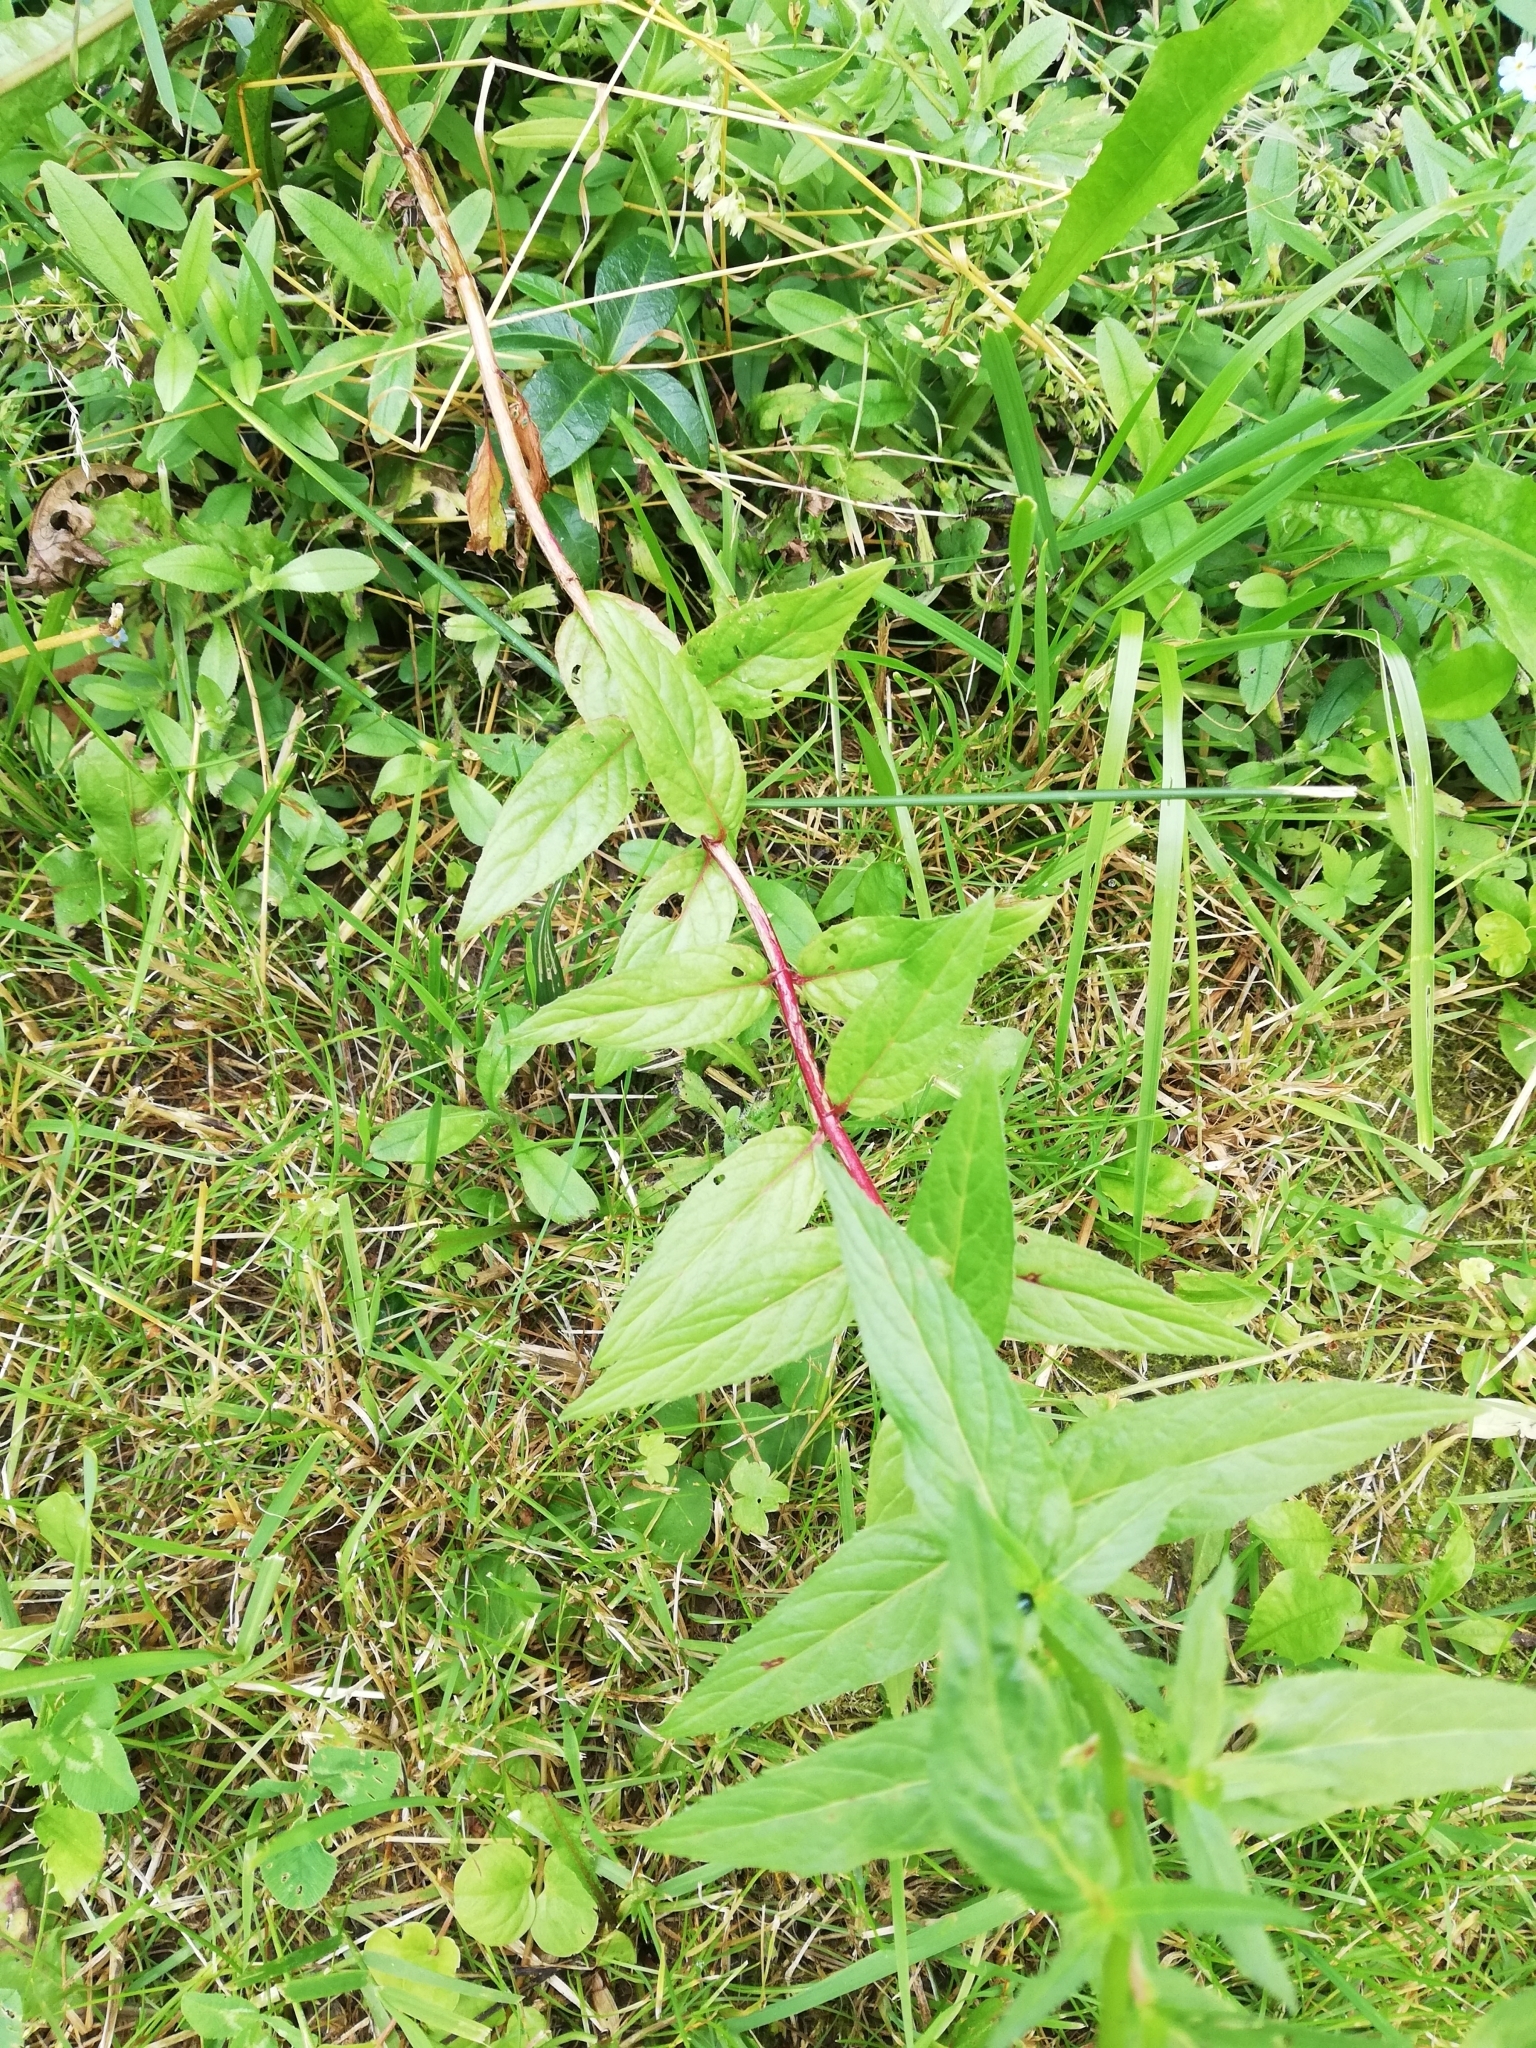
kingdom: Plantae
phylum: Tracheophyta
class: Magnoliopsida
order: Myrtales
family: Onagraceae
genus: Epilobium
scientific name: Epilobium pseudorubescens
